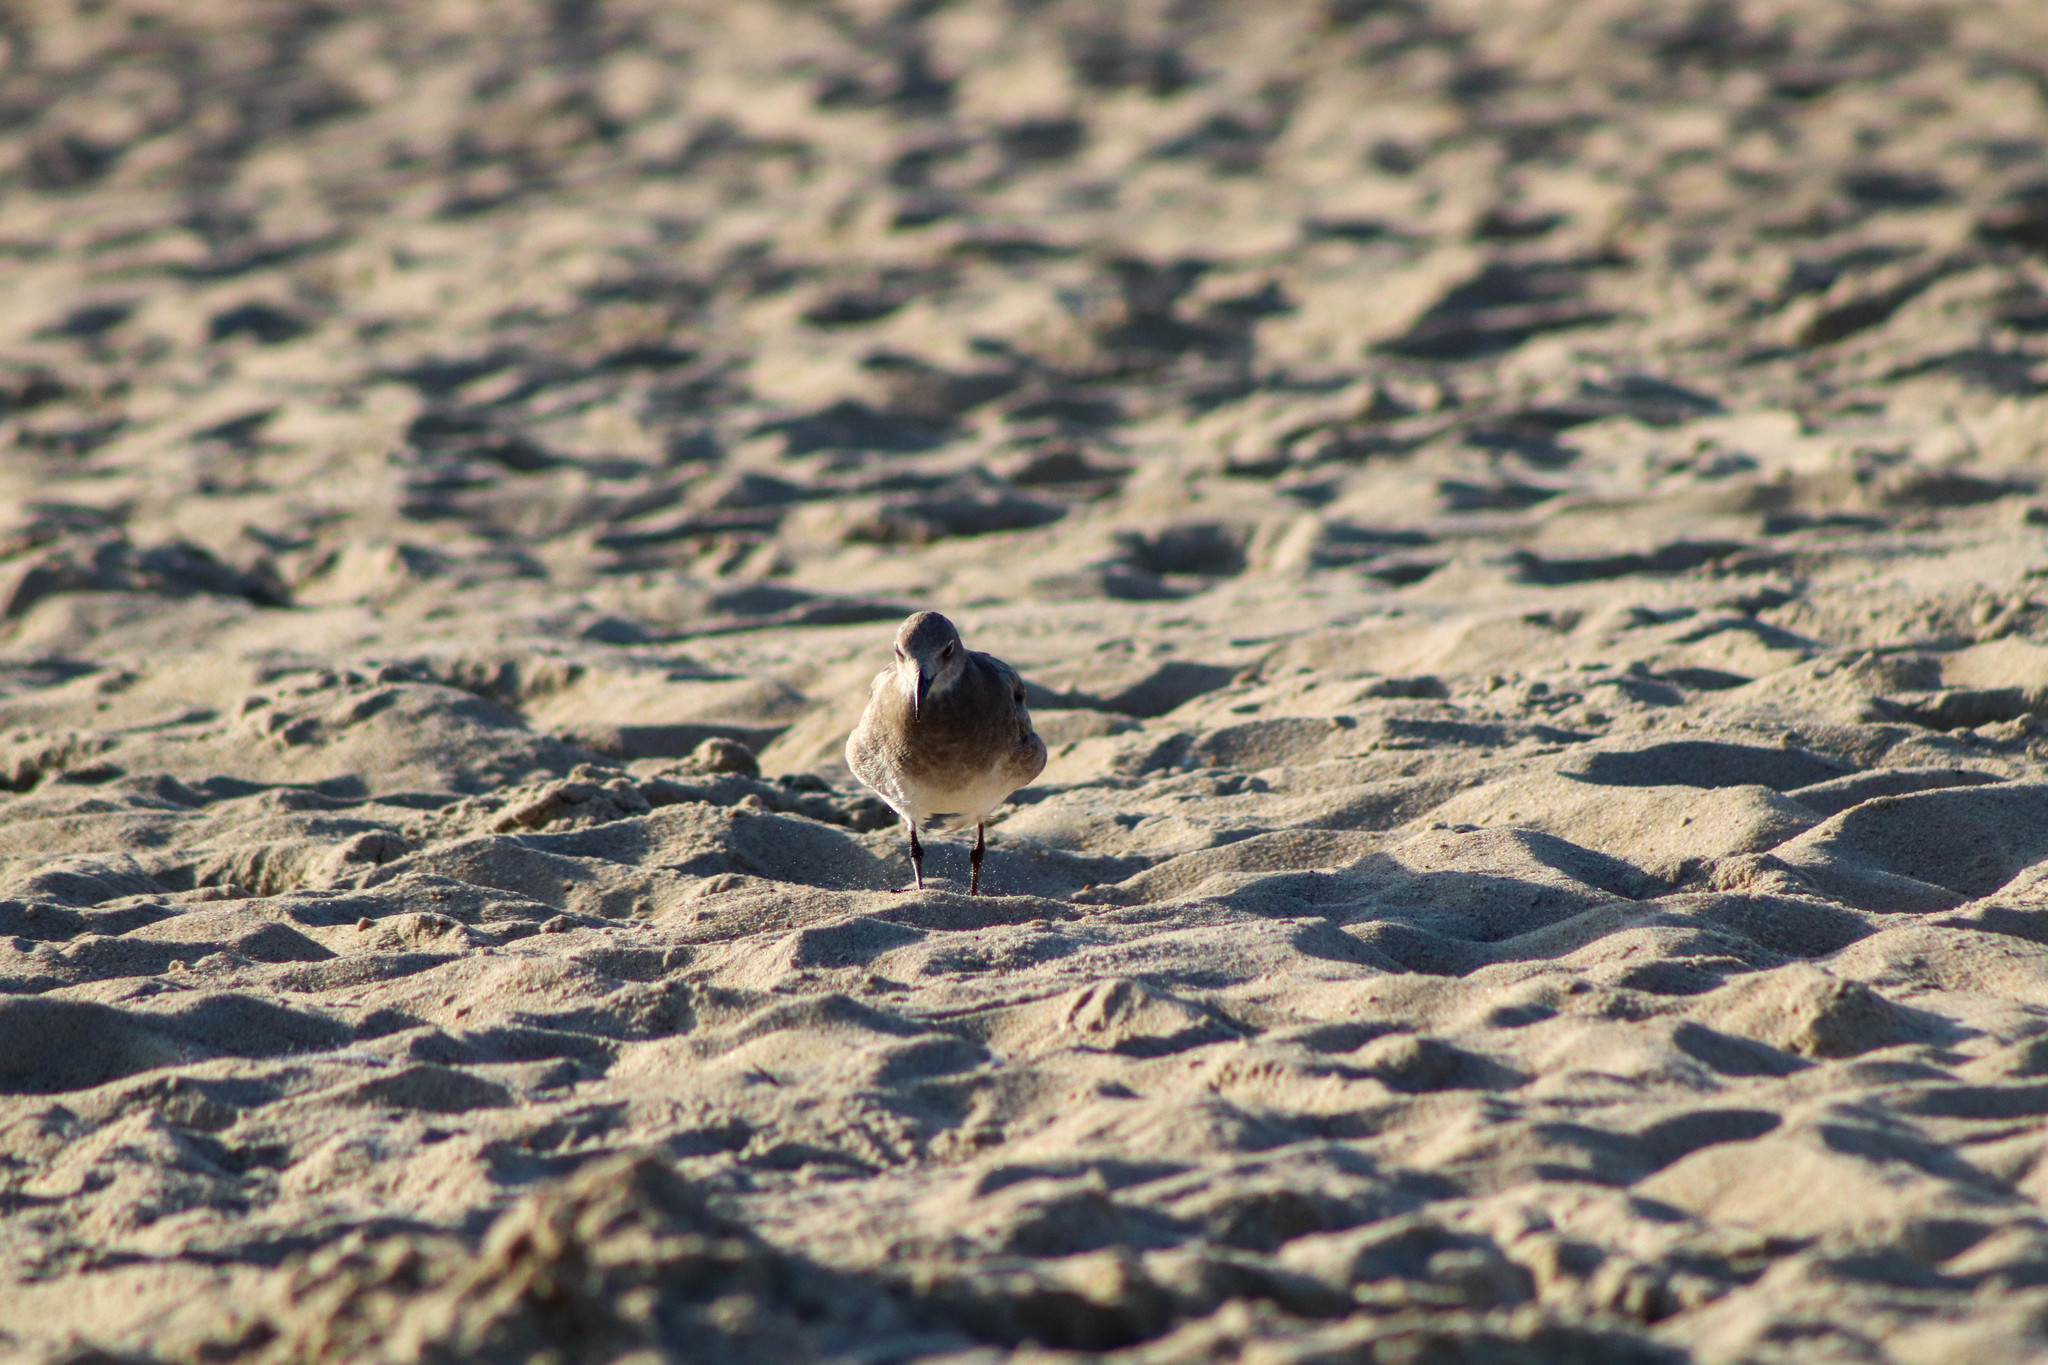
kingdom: Animalia
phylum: Chordata
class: Aves
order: Charadriiformes
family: Laridae
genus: Leucophaeus
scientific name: Leucophaeus atricilla
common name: Laughing gull
